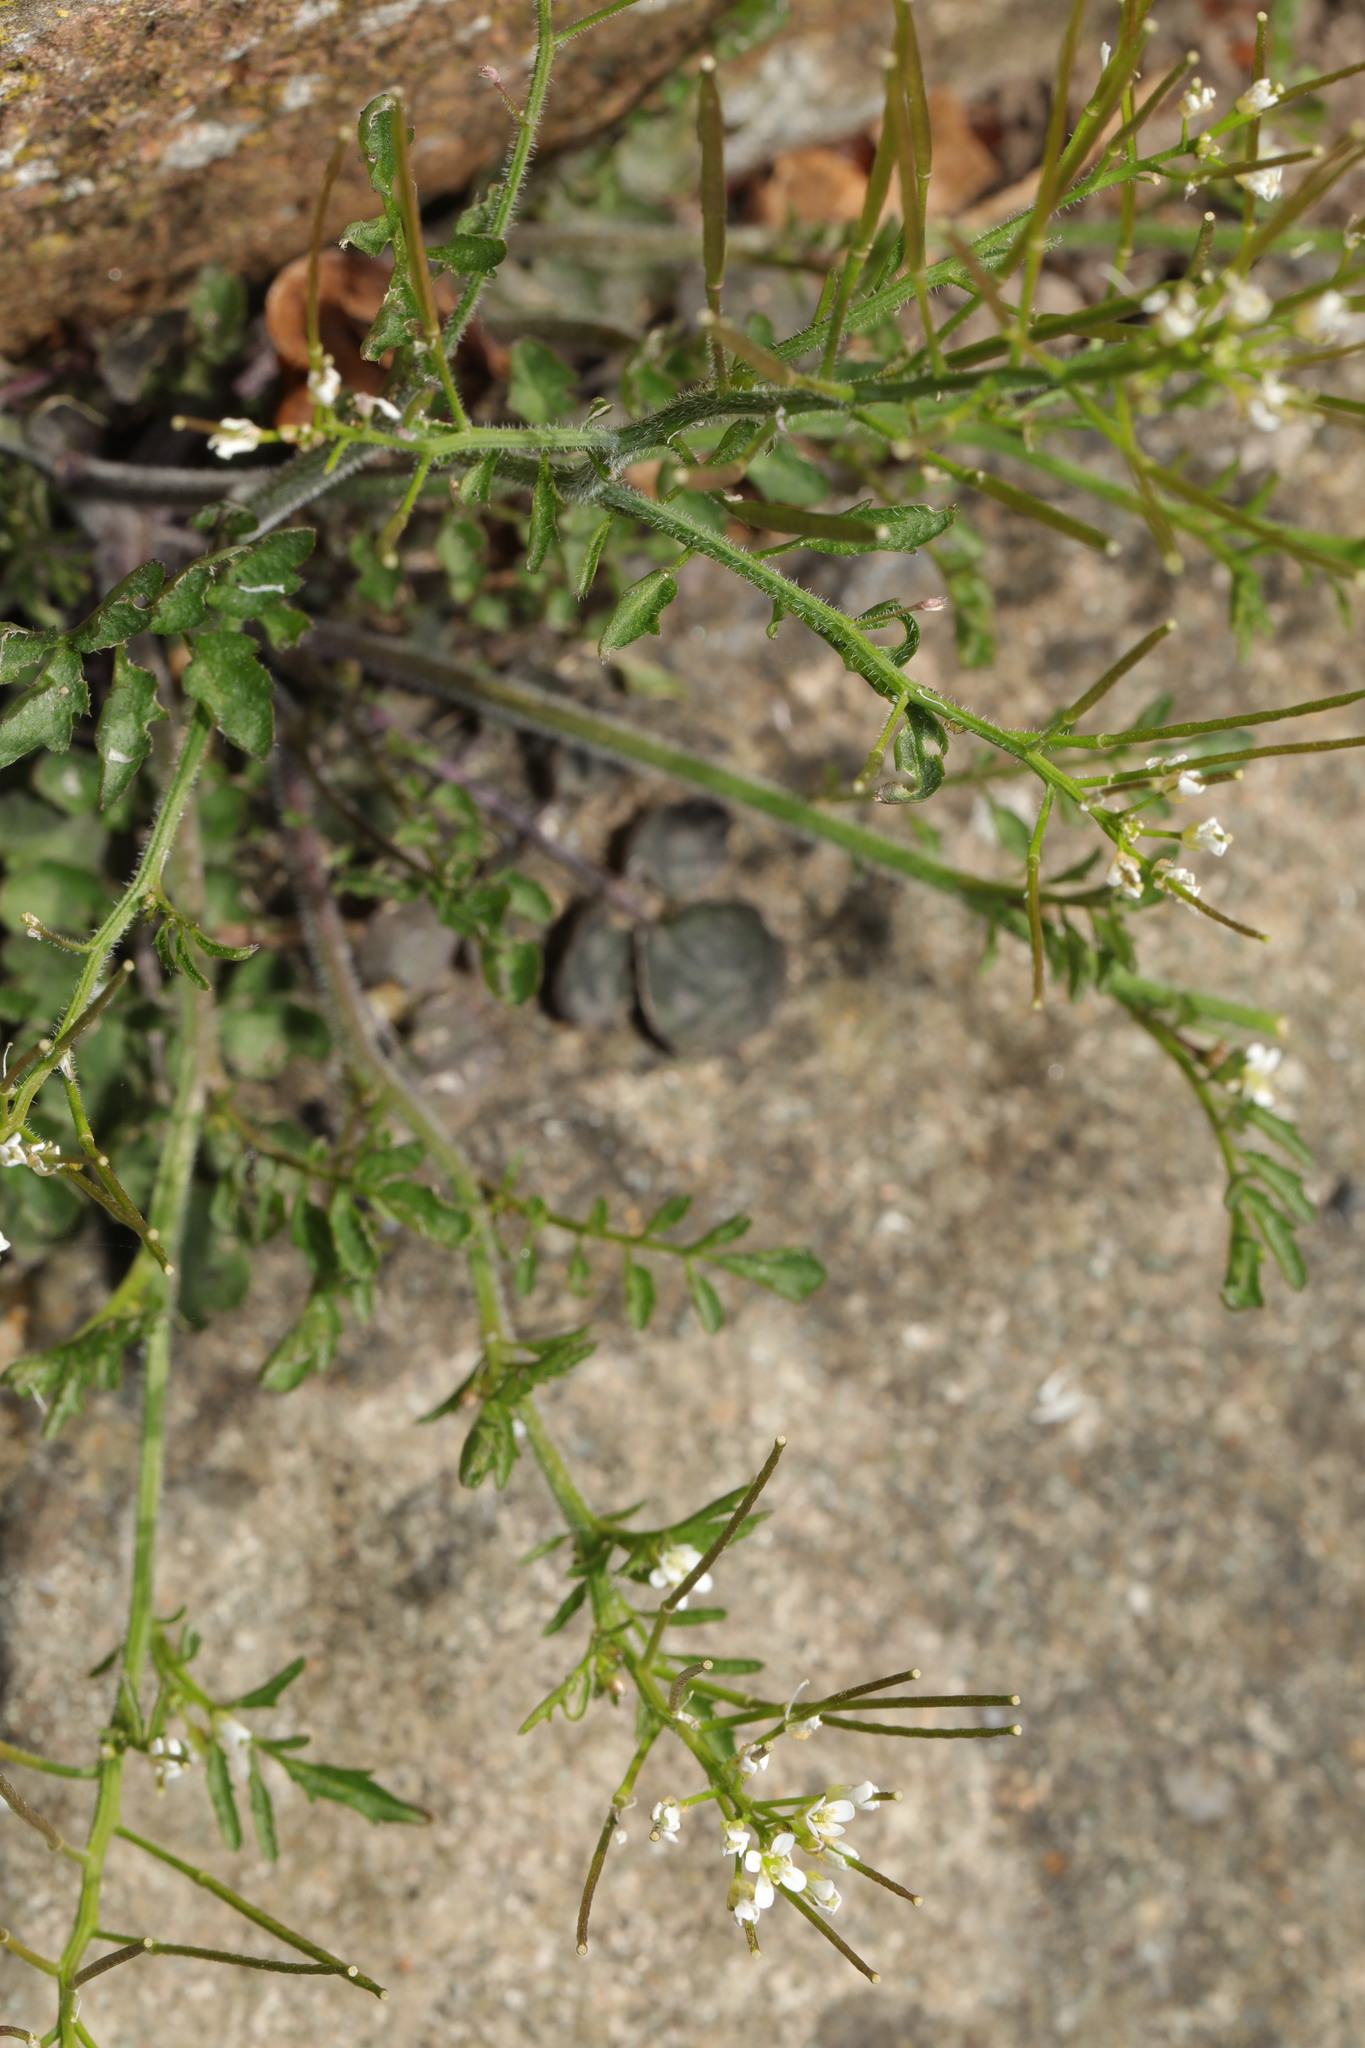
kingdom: Plantae
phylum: Tracheophyta
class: Magnoliopsida
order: Brassicales
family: Brassicaceae
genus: Cardamine
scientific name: Cardamine flexuosa
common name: Woodland bittercress
